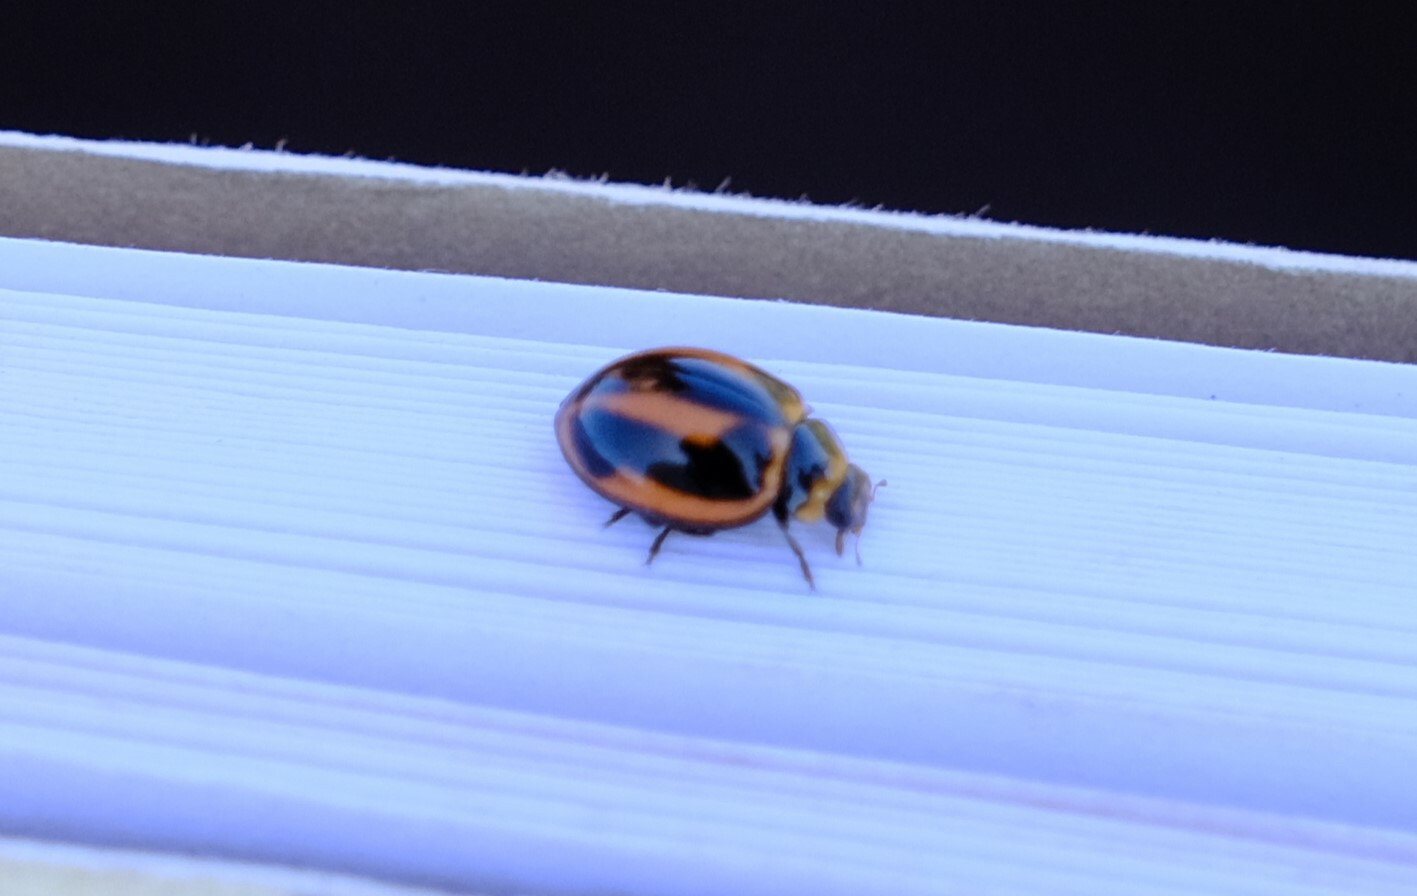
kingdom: Animalia
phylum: Arthropoda
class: Insecta
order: Coleoptera
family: Coccinellidae
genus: Micraspis
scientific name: Micraspis frenata
